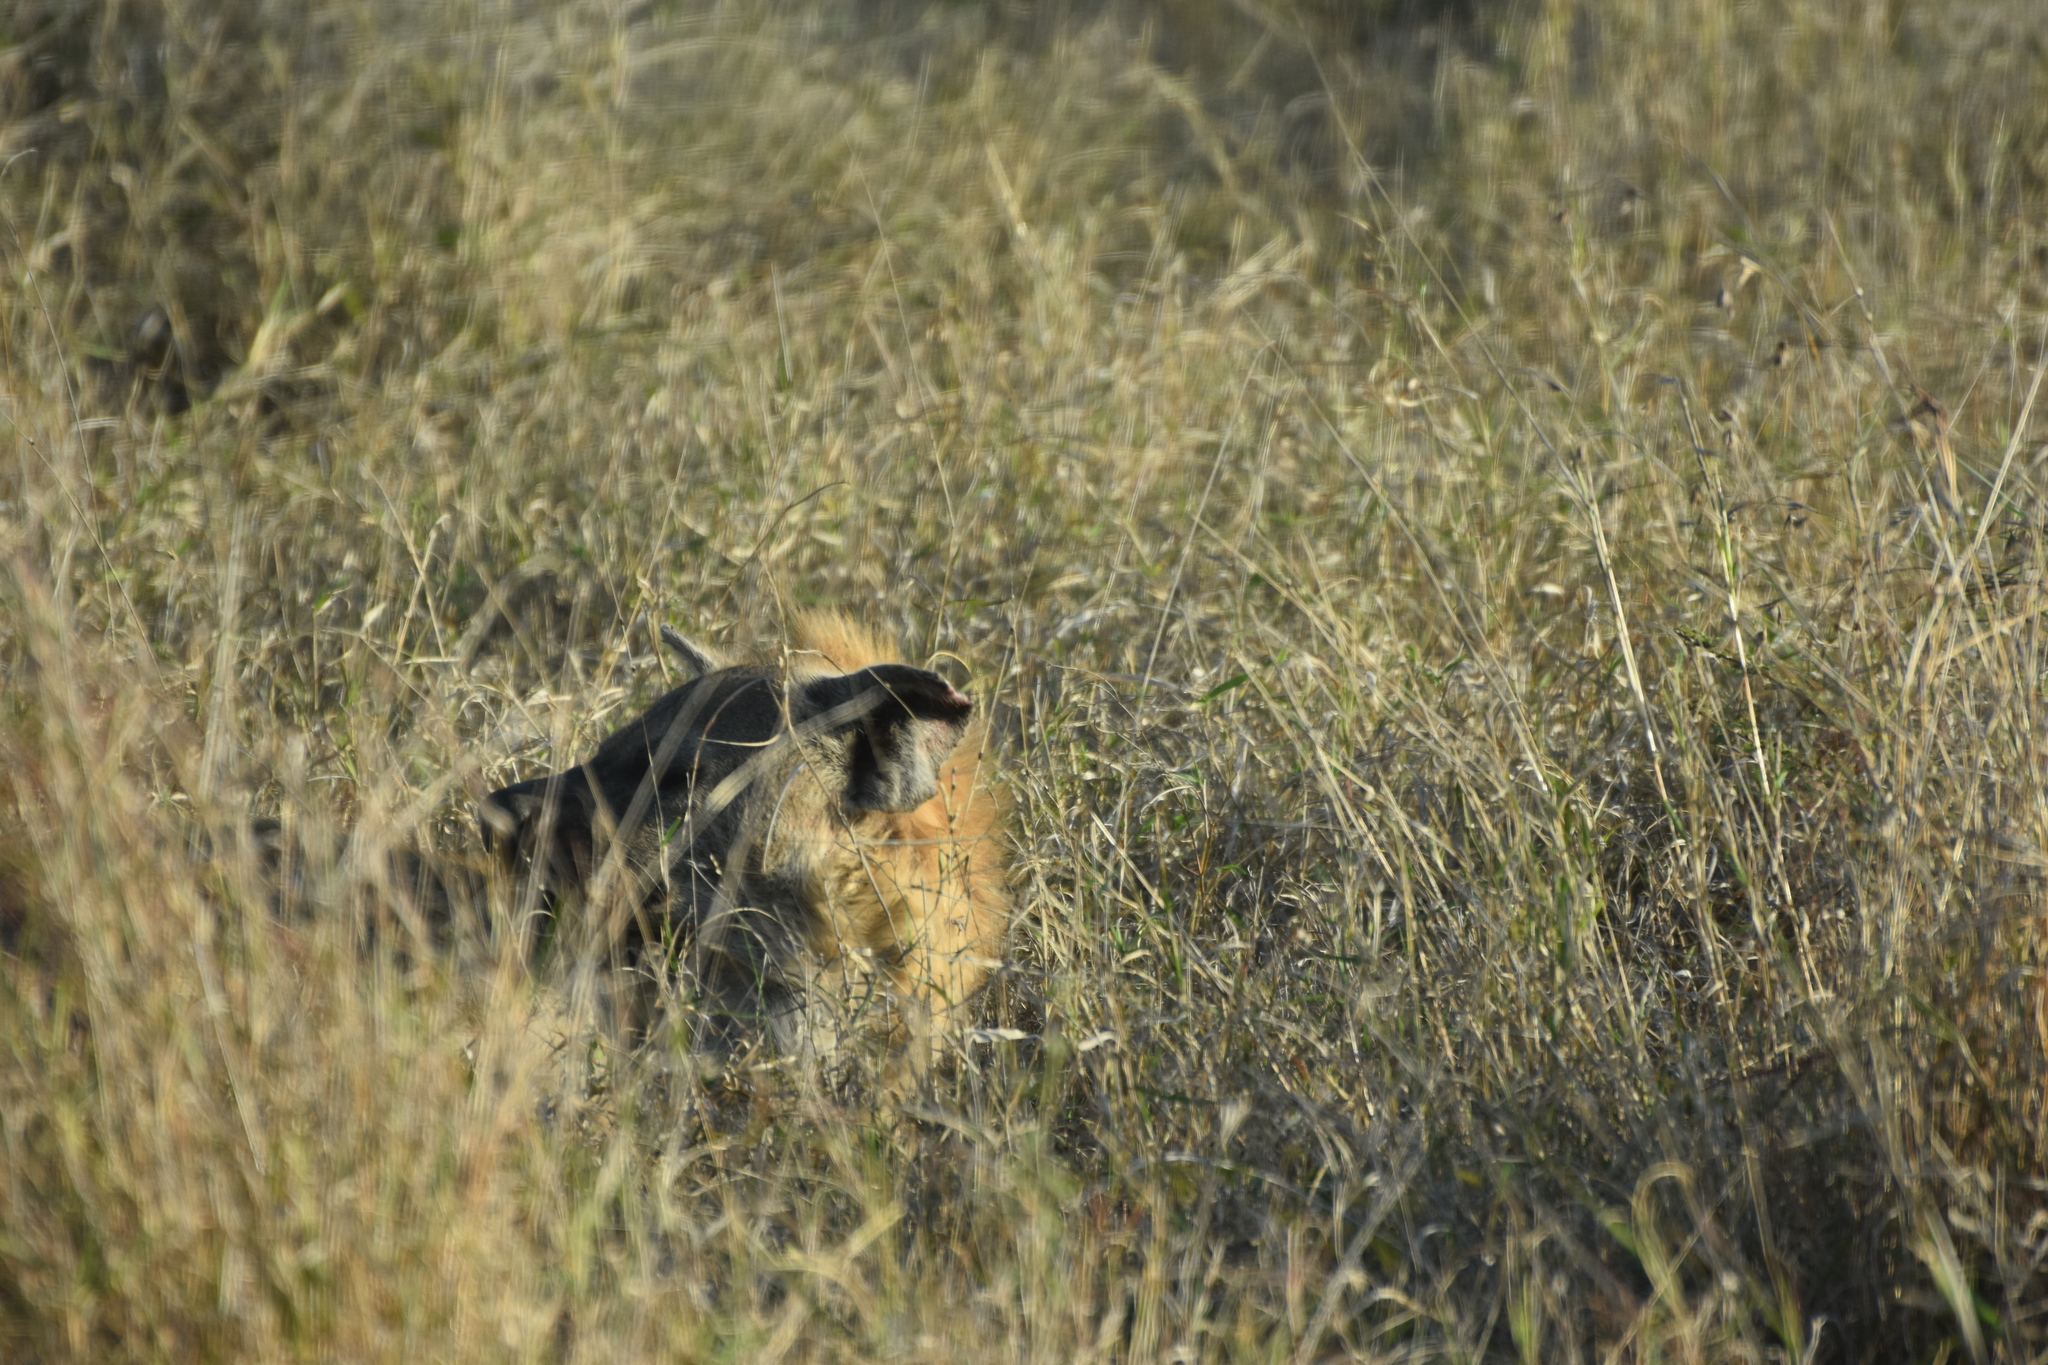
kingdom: Animalia
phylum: Chordata
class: Mammalia
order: Carnivora
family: Hyaenidae
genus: Crocuta
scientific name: Crocuta crocuta
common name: Spotted hyaena
